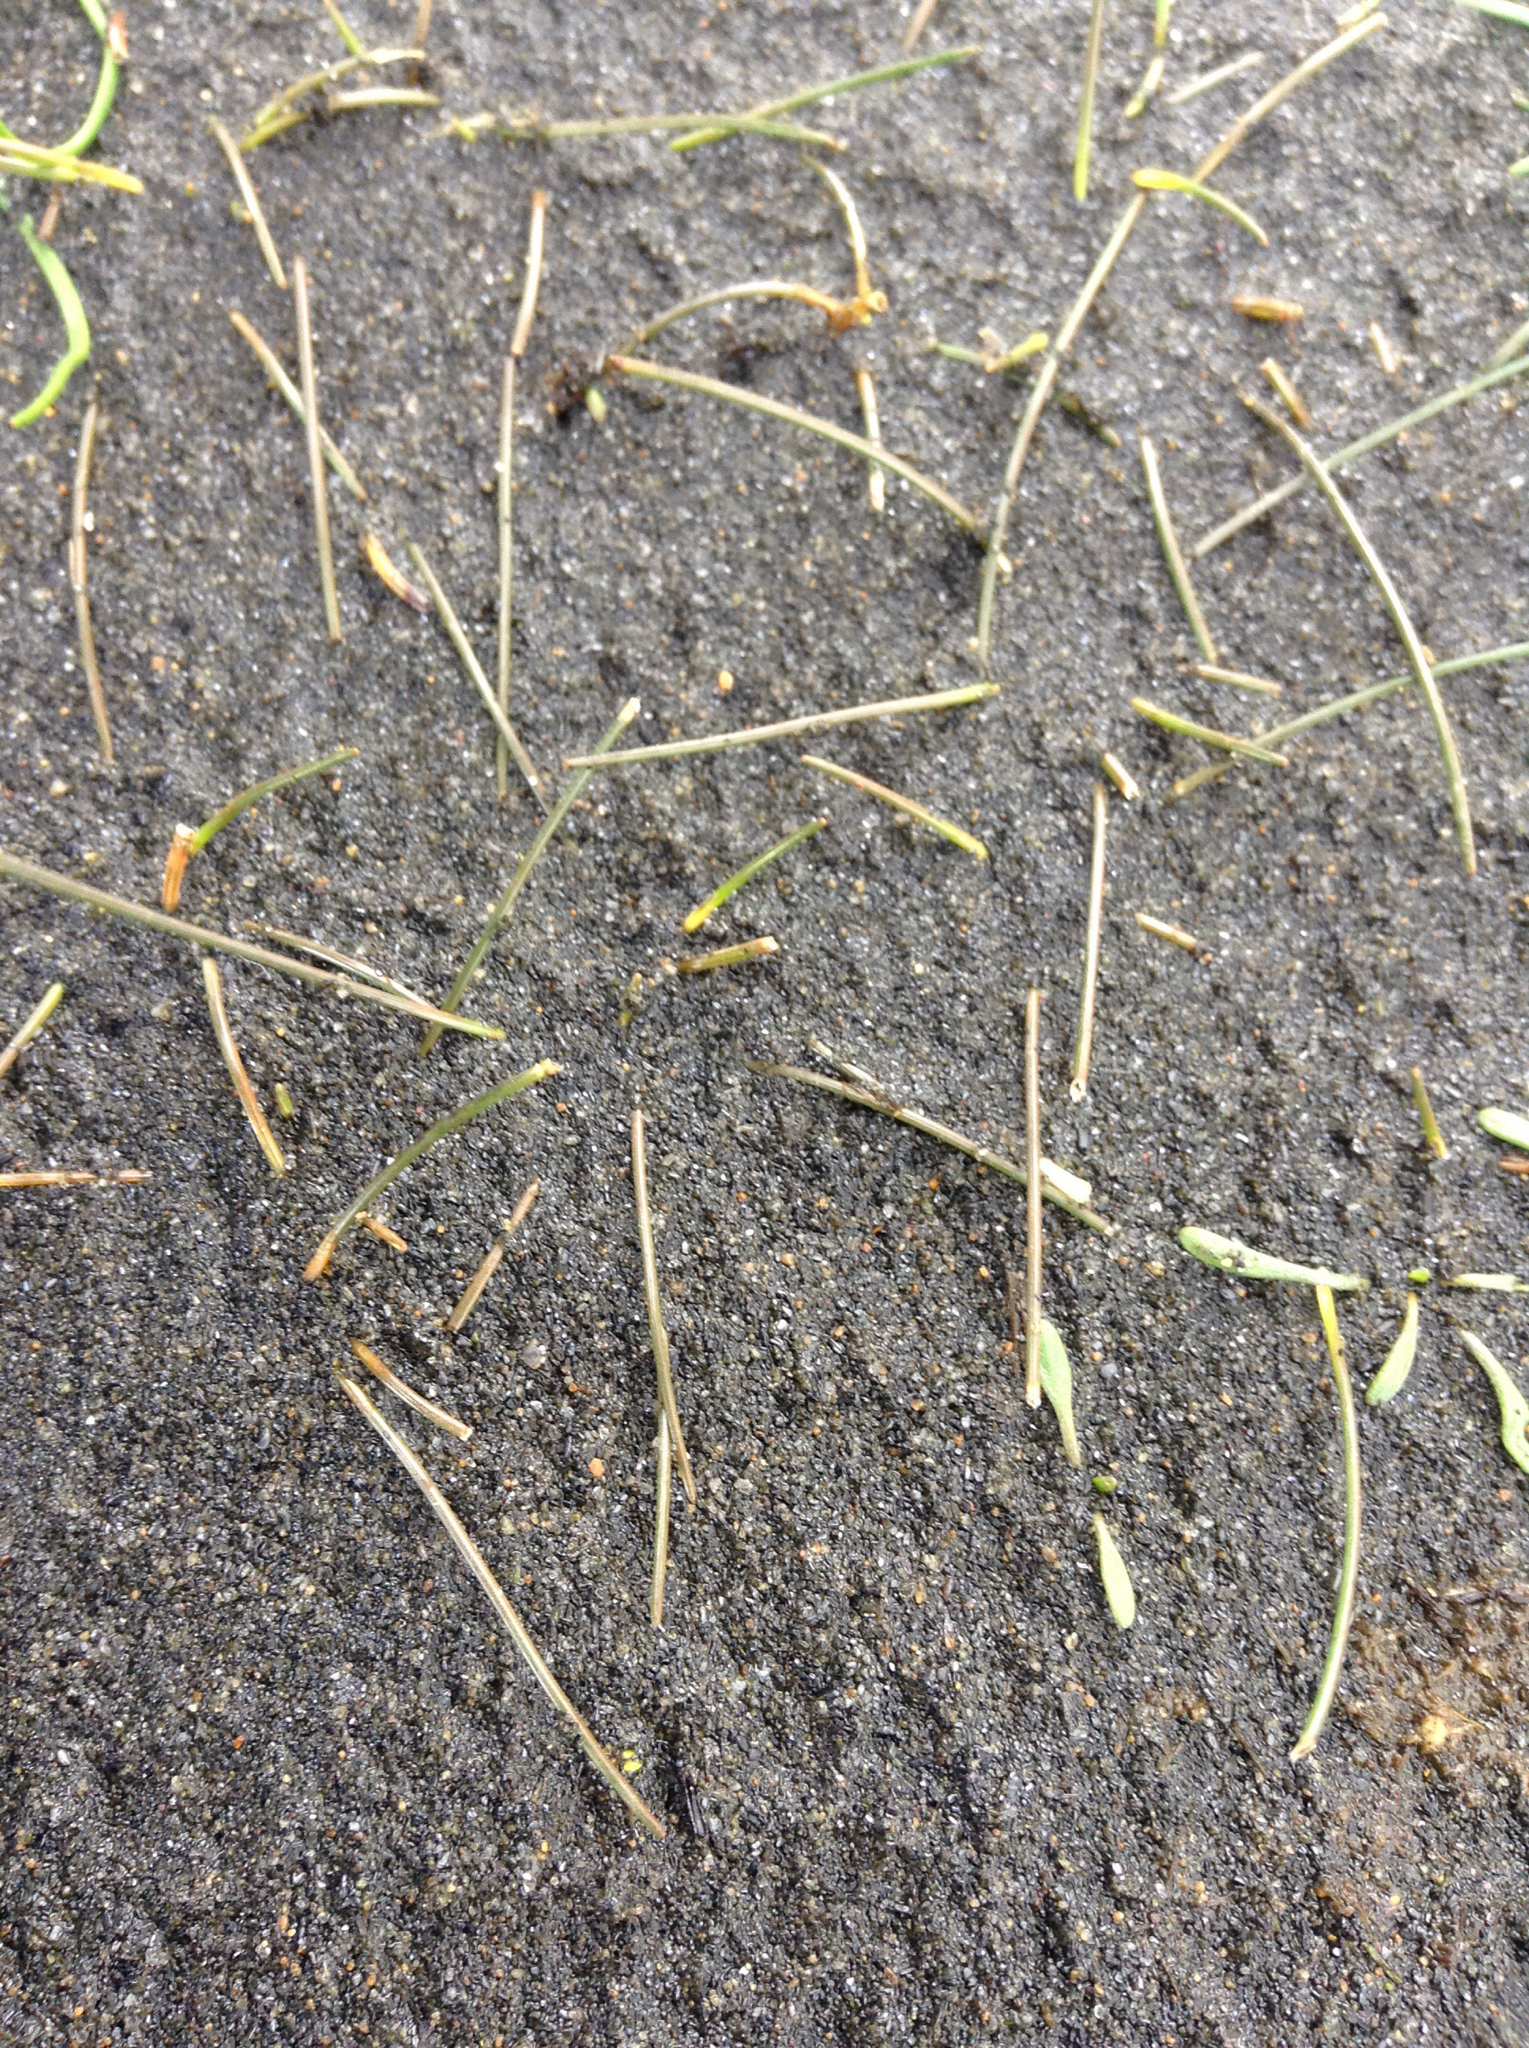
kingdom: Plantae
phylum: Tracheophyta
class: Liliopsida
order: Poales
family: Cyperaceae
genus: Eleocharis
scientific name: Eleocharis neozelandica
